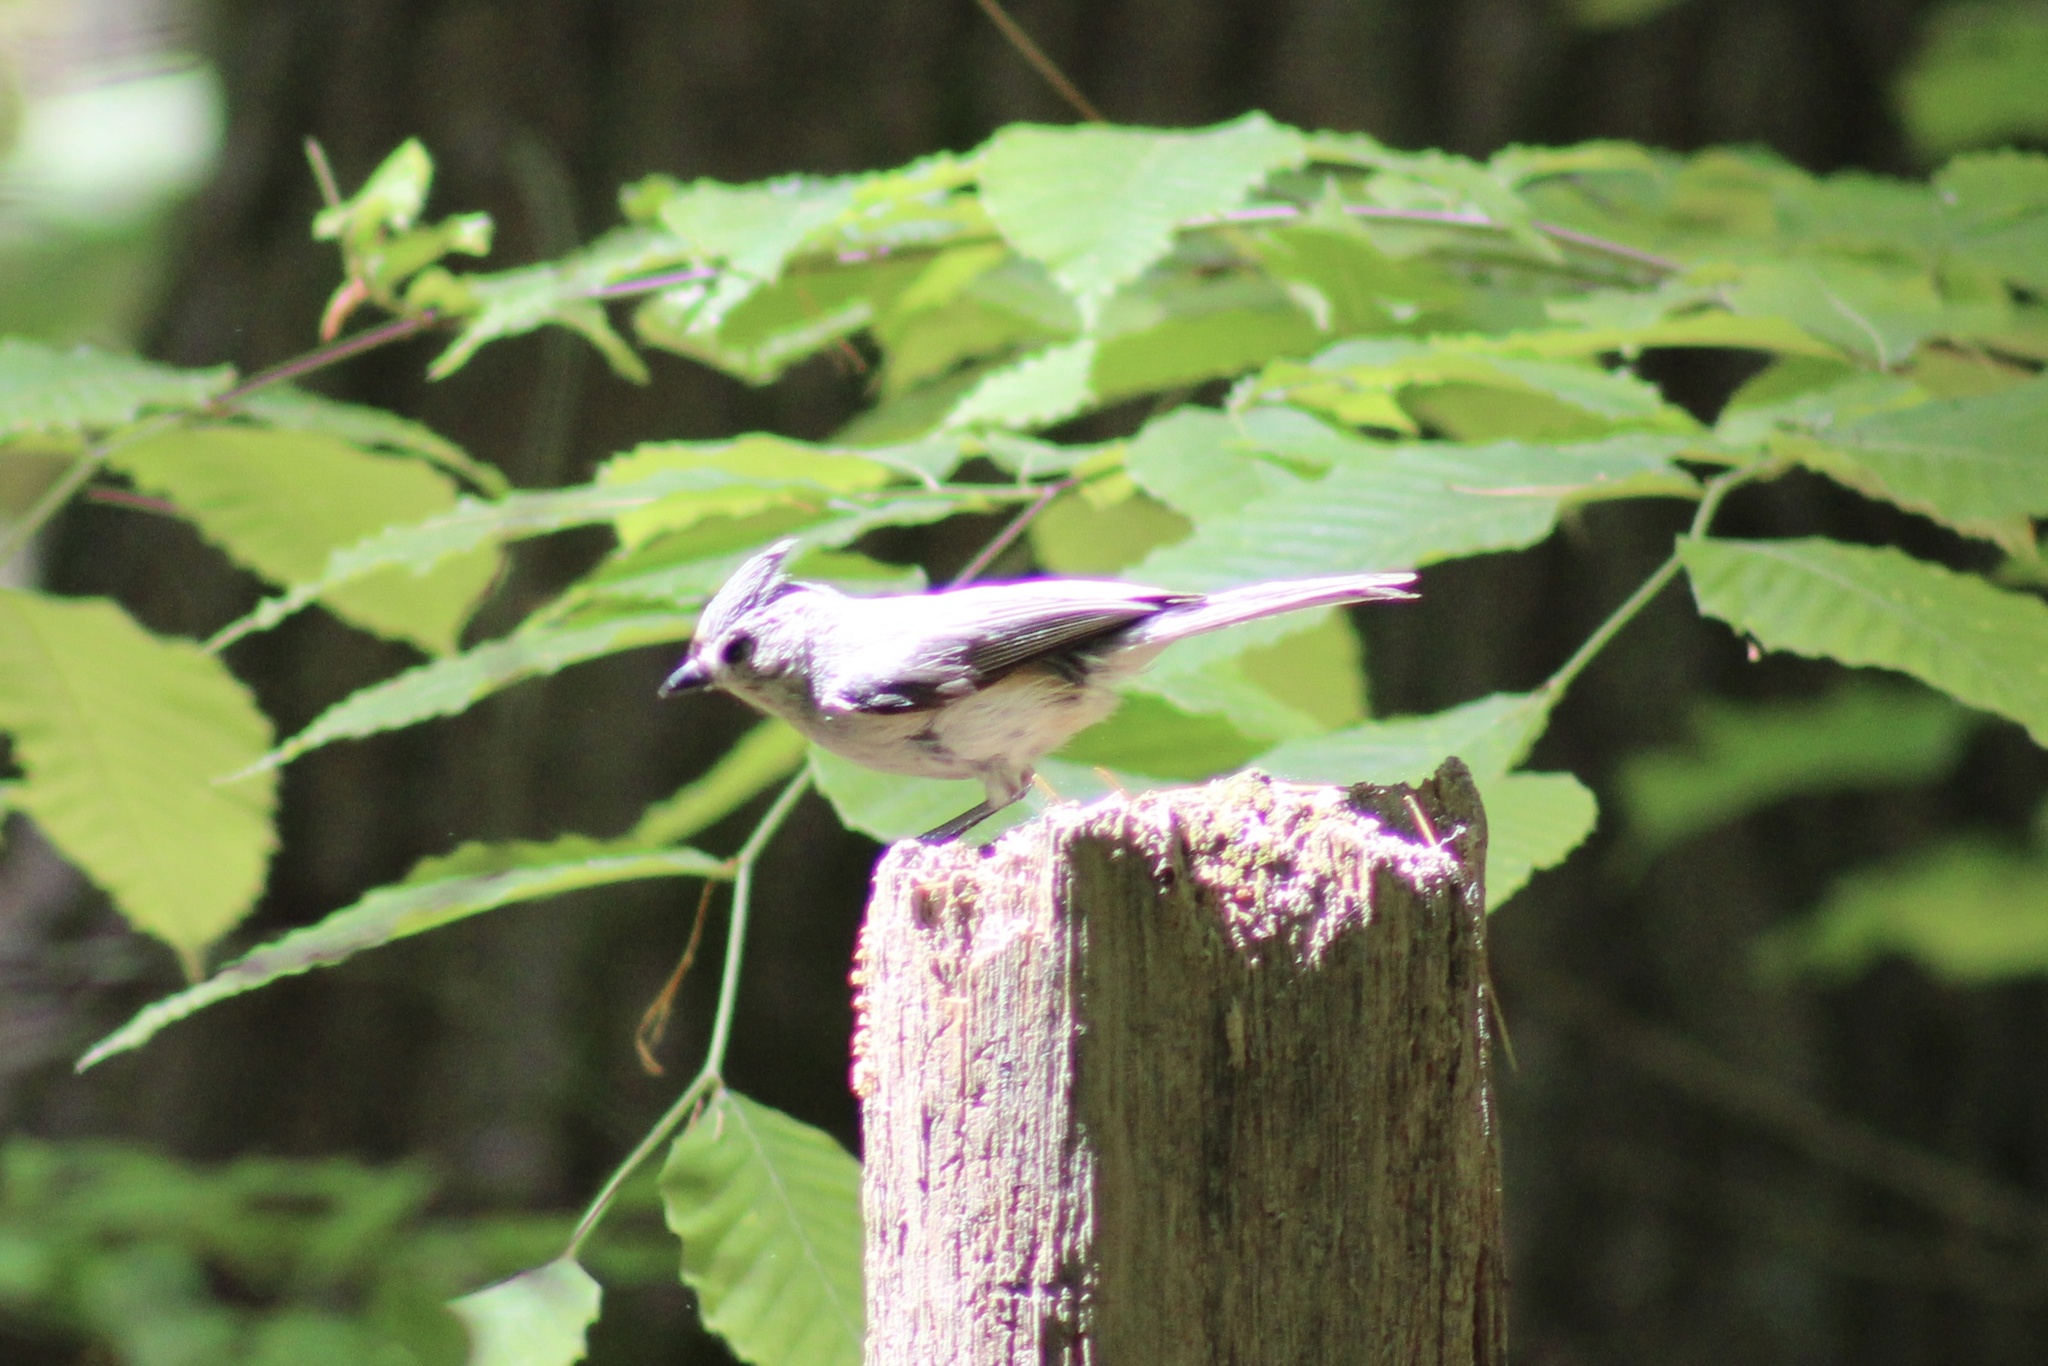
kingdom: Animalia
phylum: Chordata
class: Aves
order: Passeriformes
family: Paridae
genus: Baeolophus
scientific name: Baeolophus bicolor
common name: Tufted titmouse
